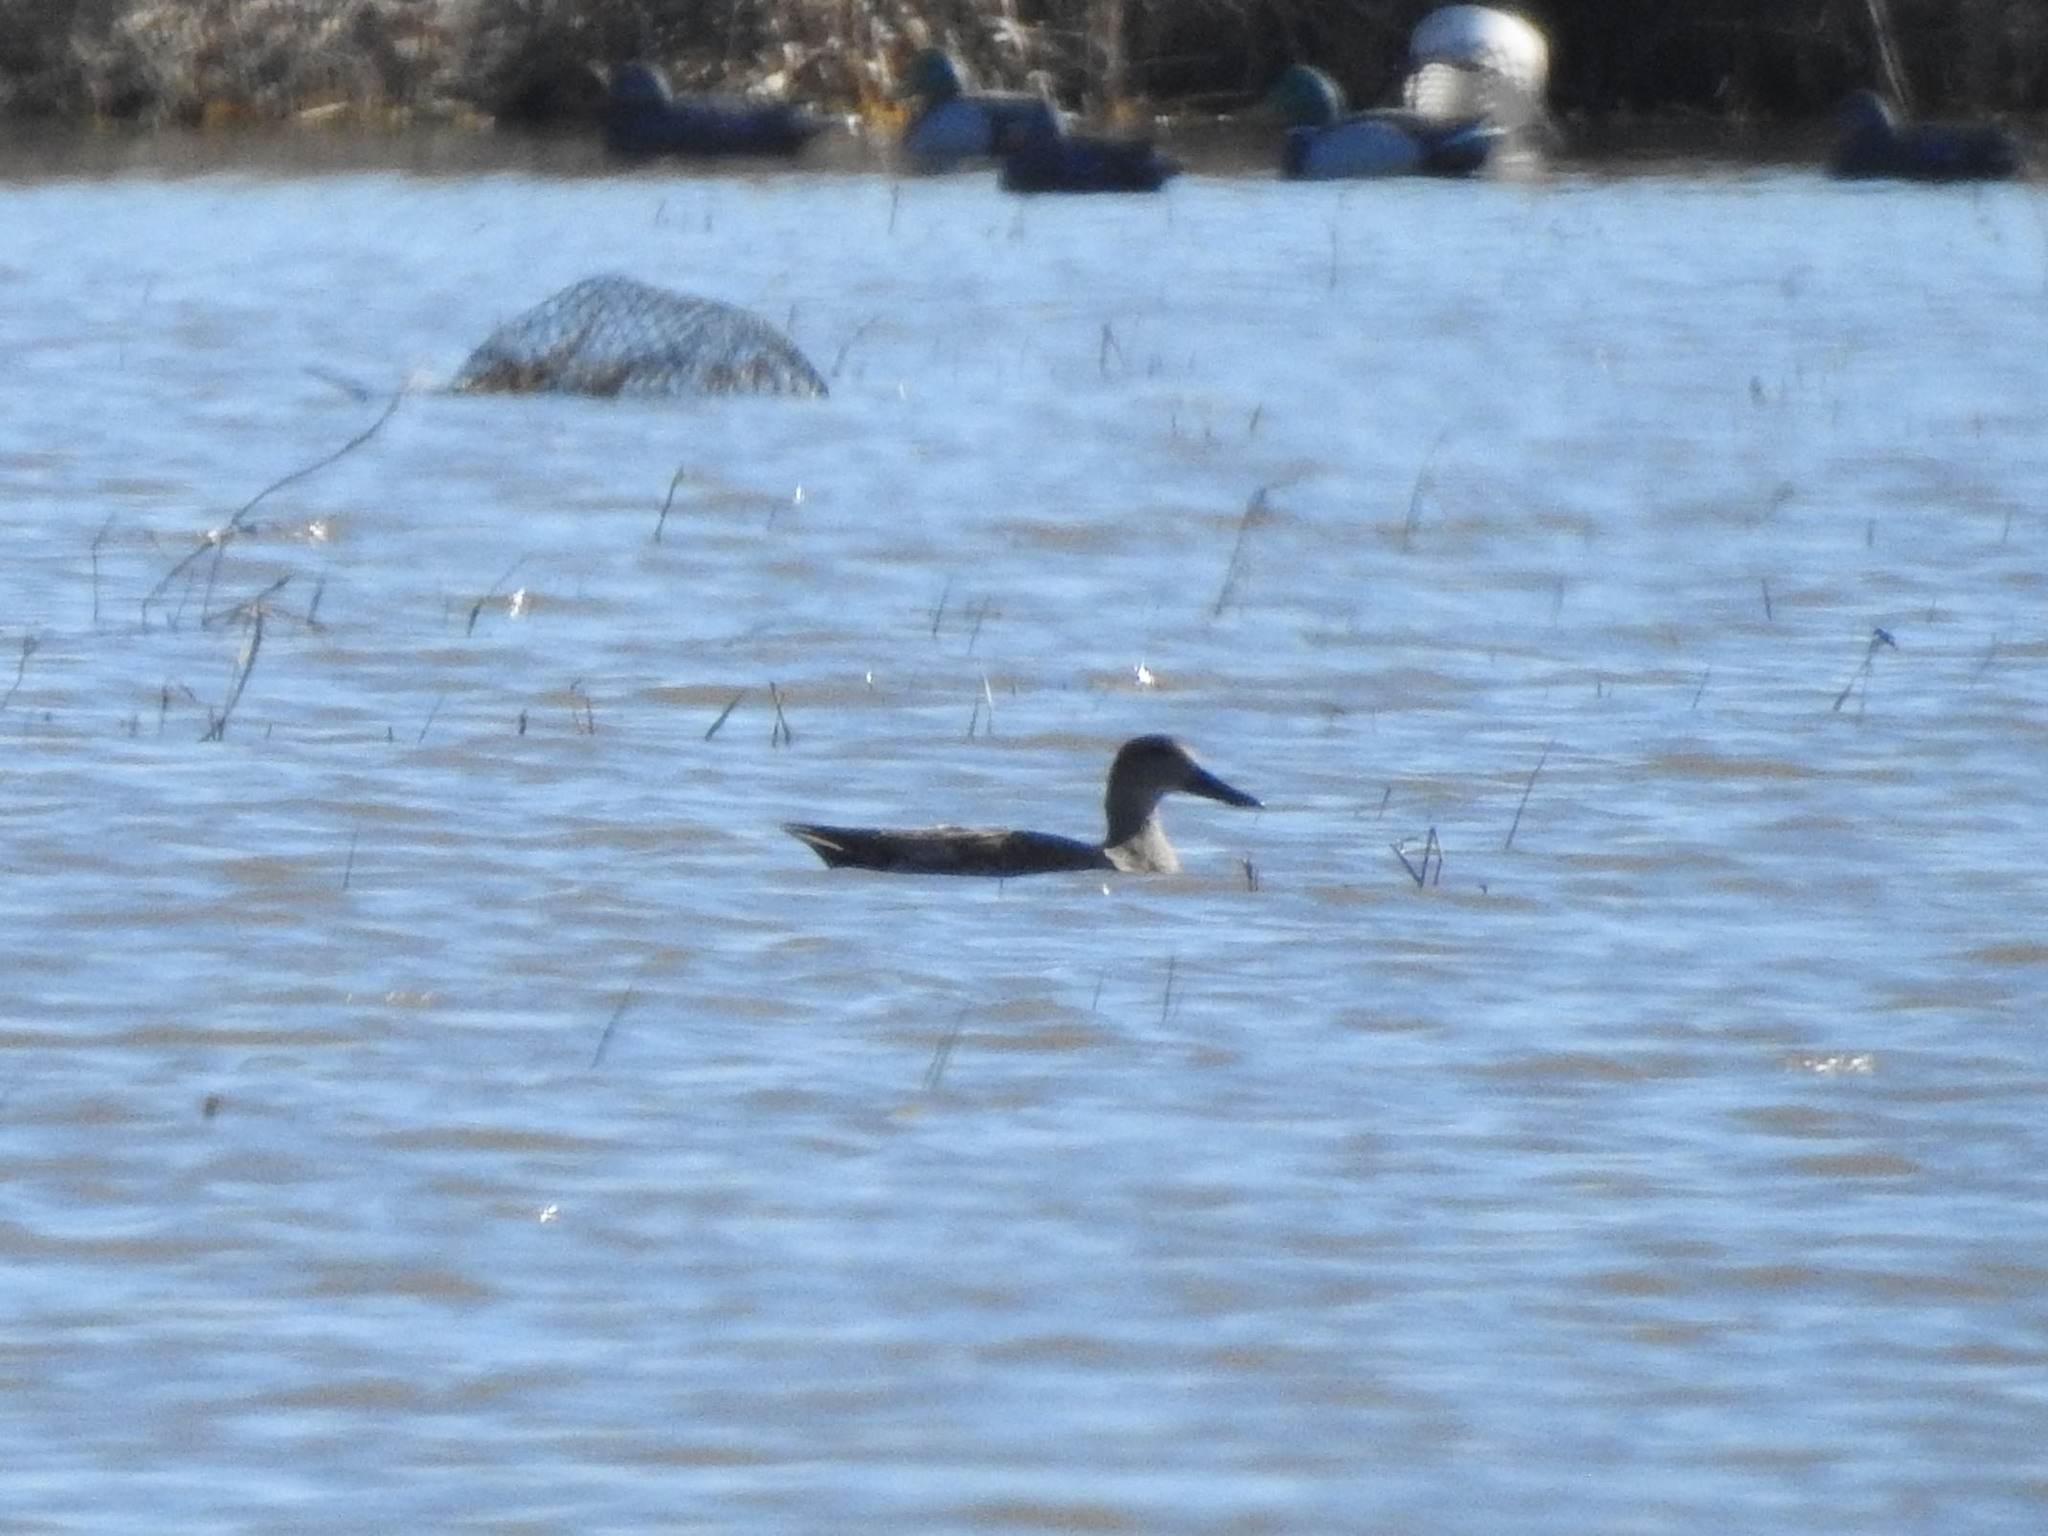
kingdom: Animalia
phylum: Chordata
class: Aves
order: Anseriformes
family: Anatidae
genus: Spatula
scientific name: Spatula clypeata
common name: Northern shoveler
